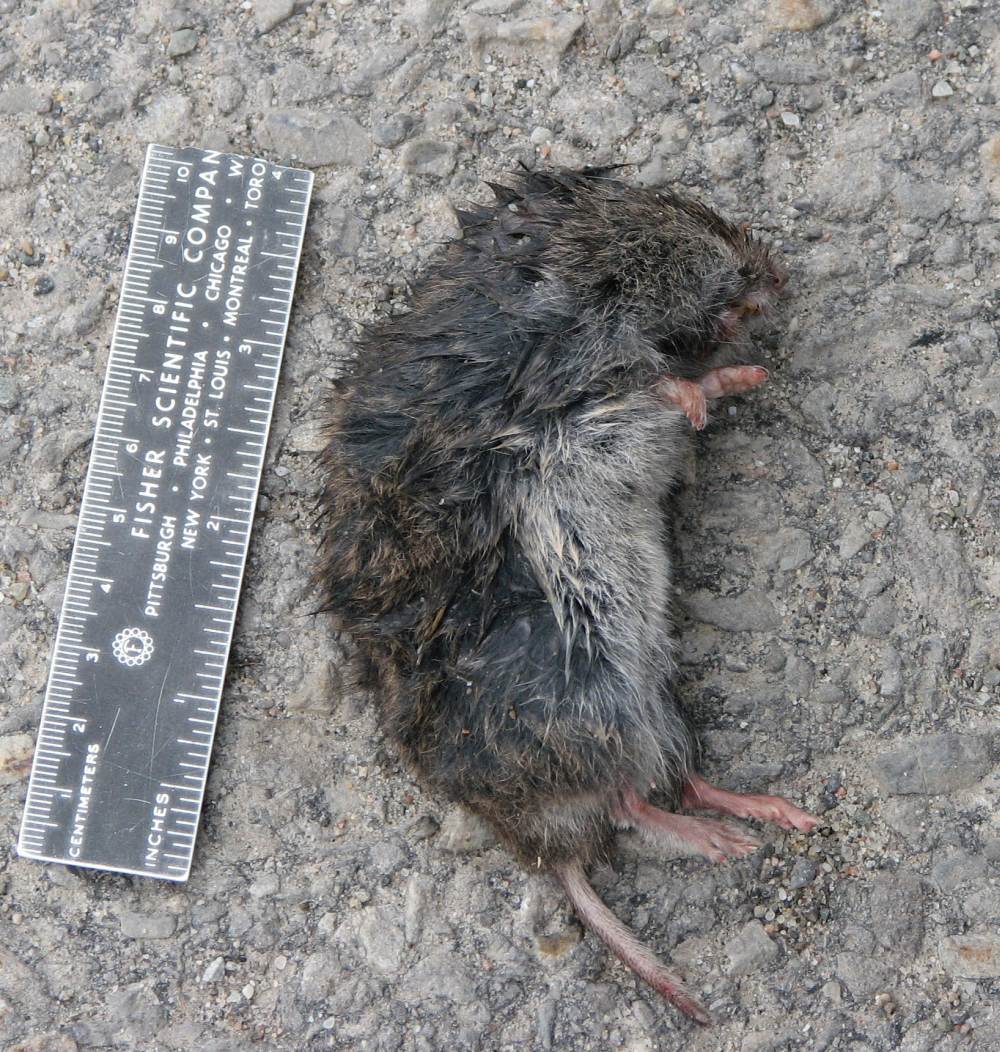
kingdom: Animalia
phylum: Chordata
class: Mammalia
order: Rodentia
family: Cricetidae
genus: Microtus
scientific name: Microtus pennsylvanicus
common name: Meadow vole
